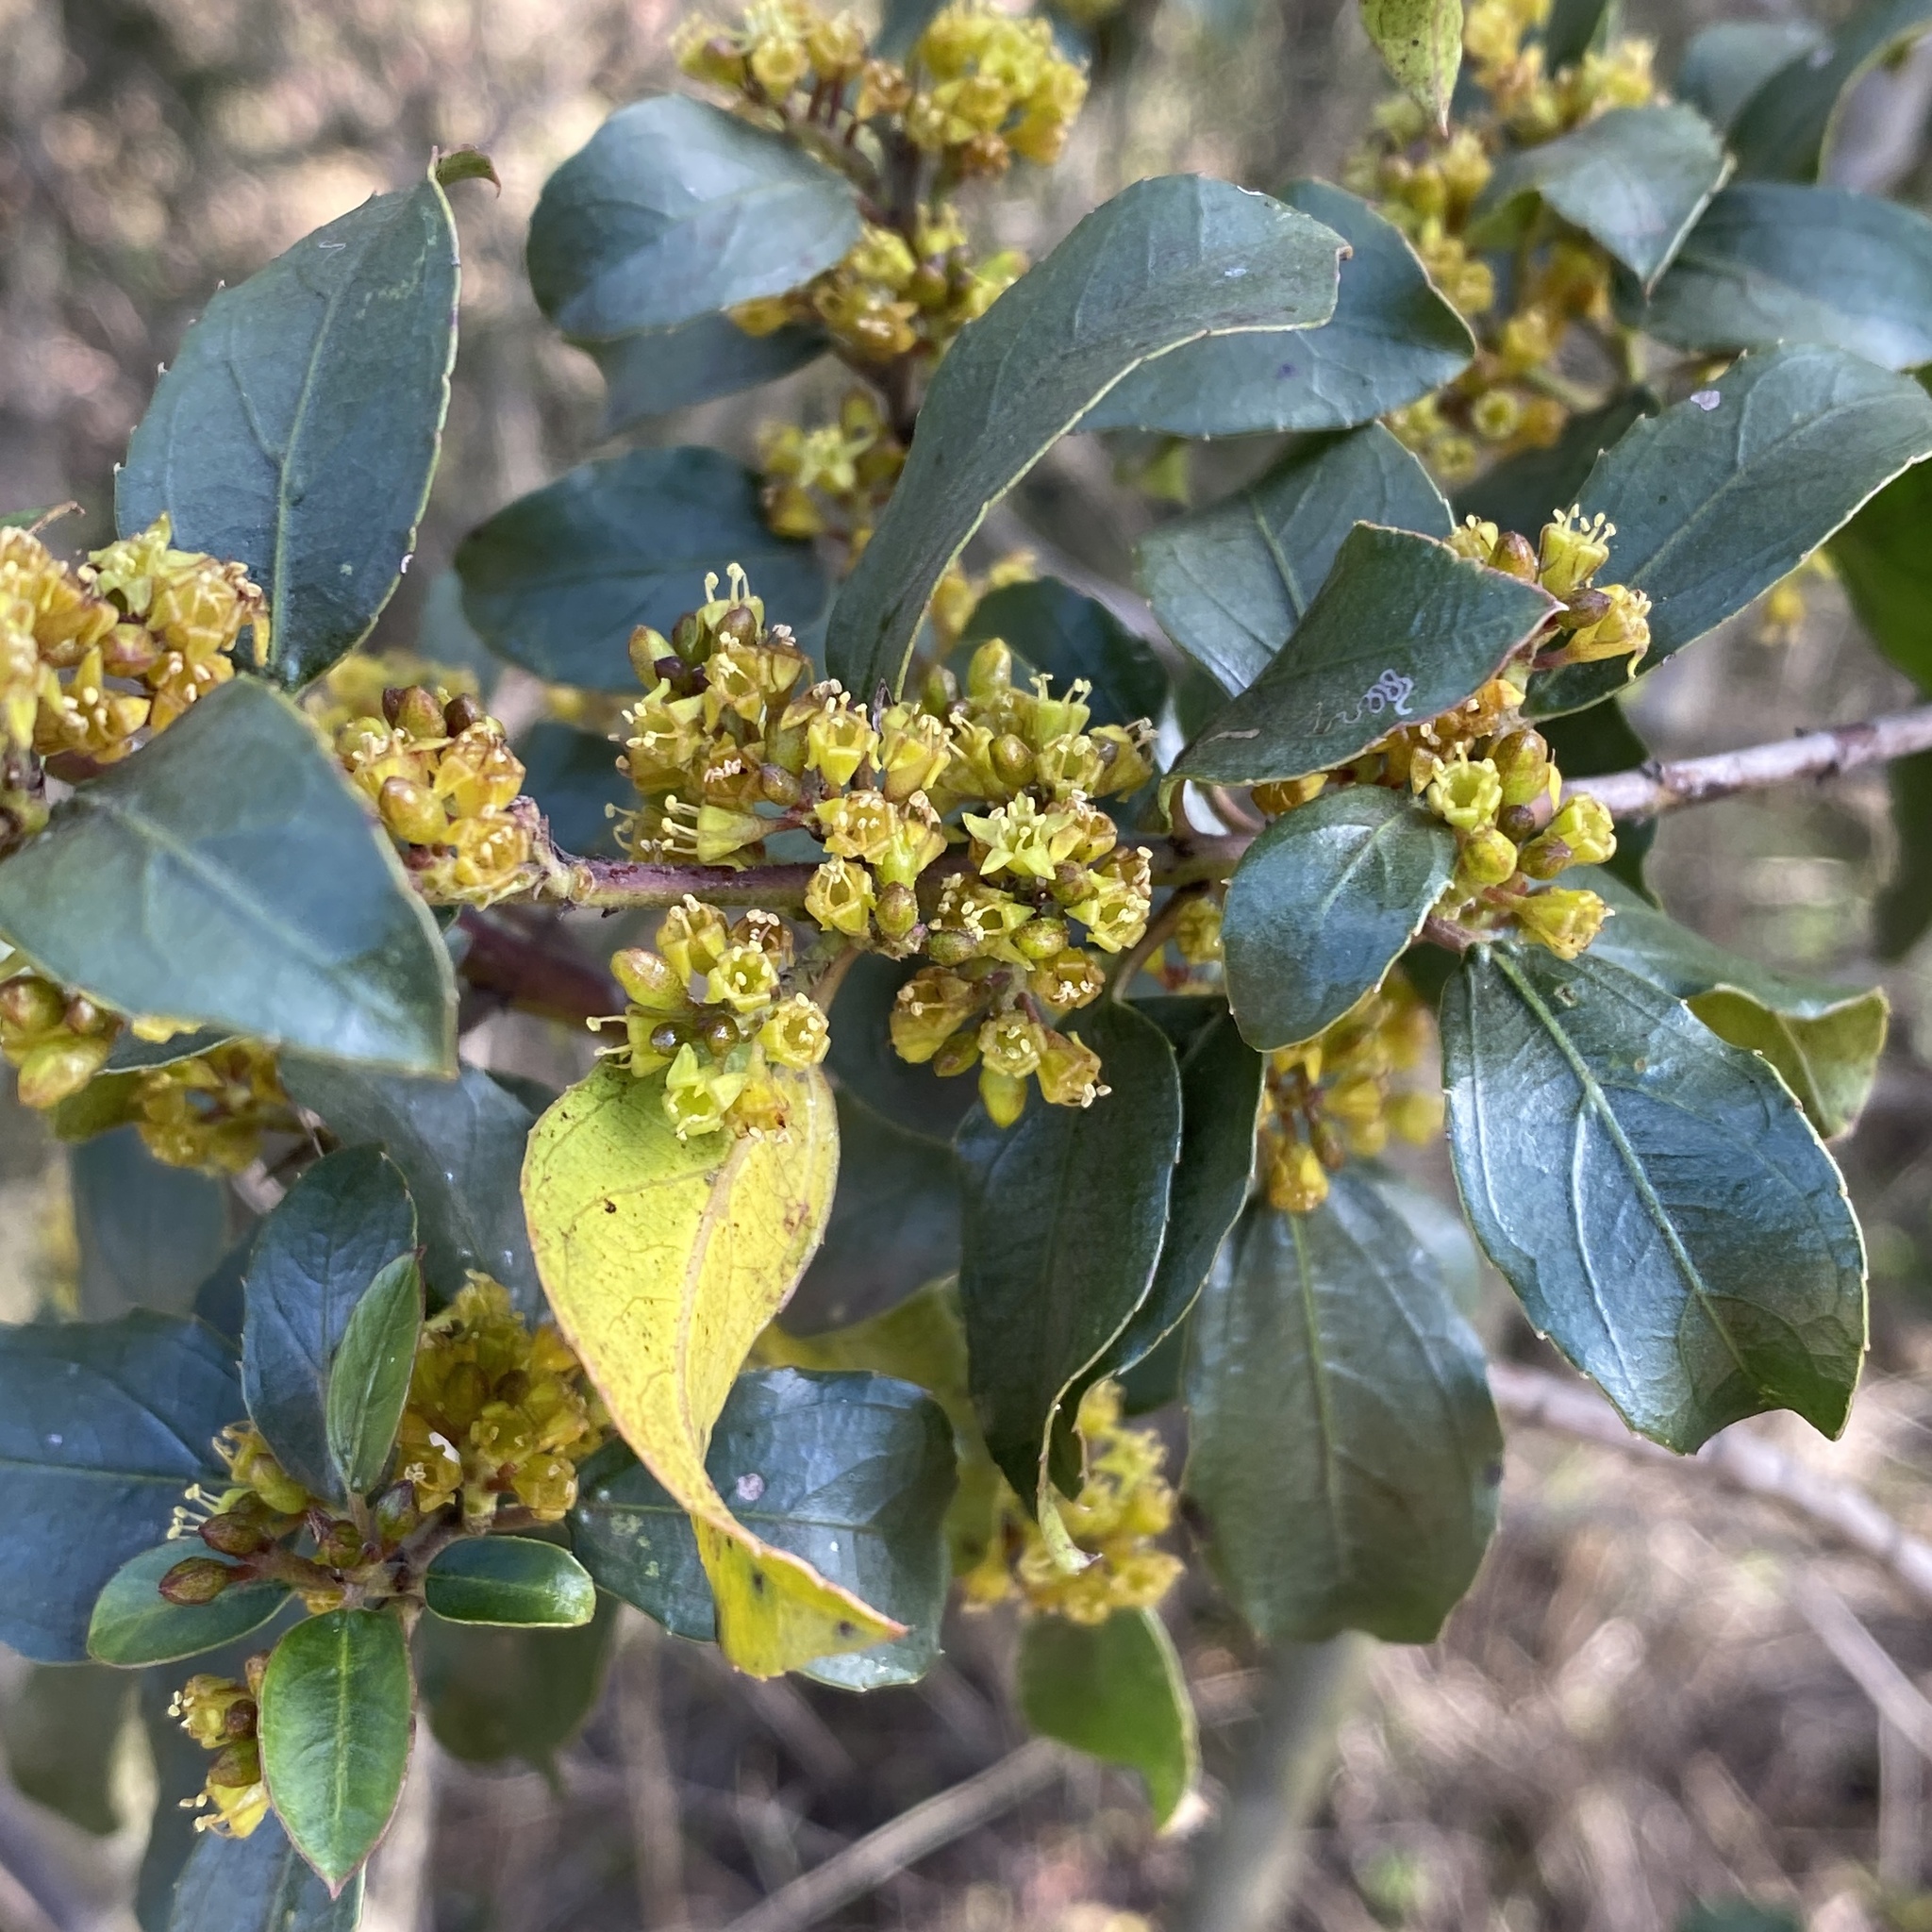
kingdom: Plantae
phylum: Tracheophyta
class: Magnoliopsida
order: Rosales
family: Rhamnaceae
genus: Rhamnus
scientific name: Rhamnus alaternus
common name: Mediterranean buckthorn
